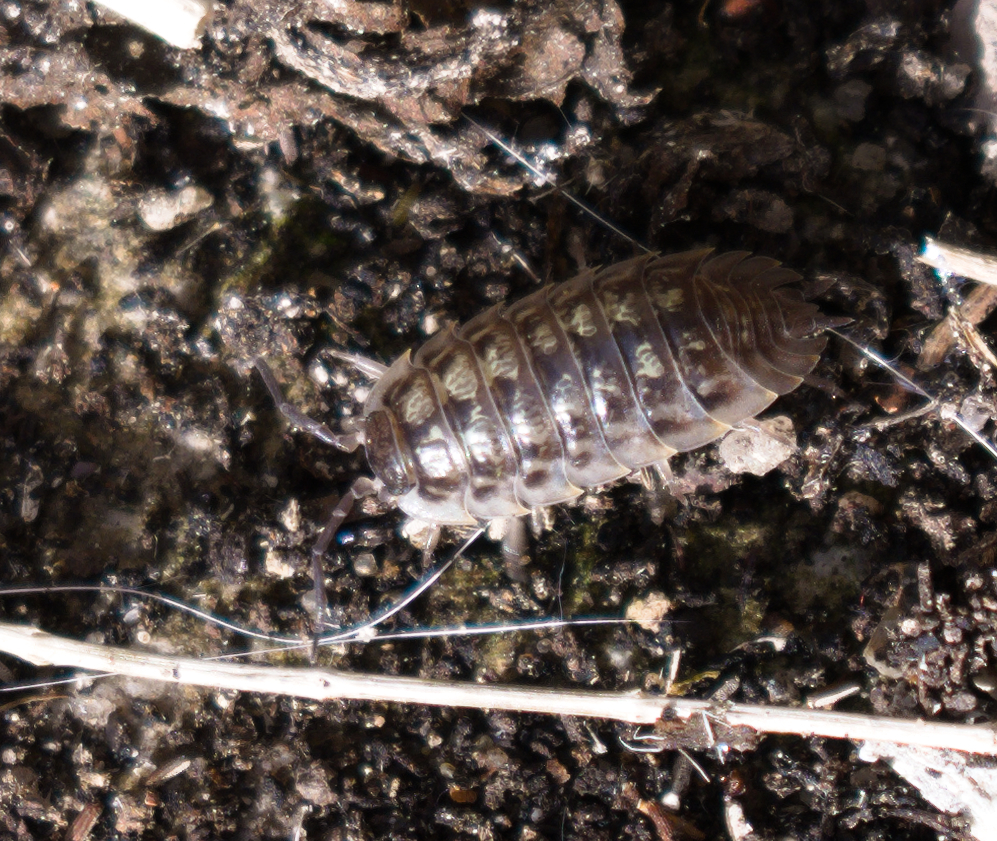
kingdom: Animalia
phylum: Arthropoda
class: Malacostraca
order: Isopoda
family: Oniscidae
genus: Oniscus
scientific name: Oniscus asellus
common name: Common shiny woodlouse
